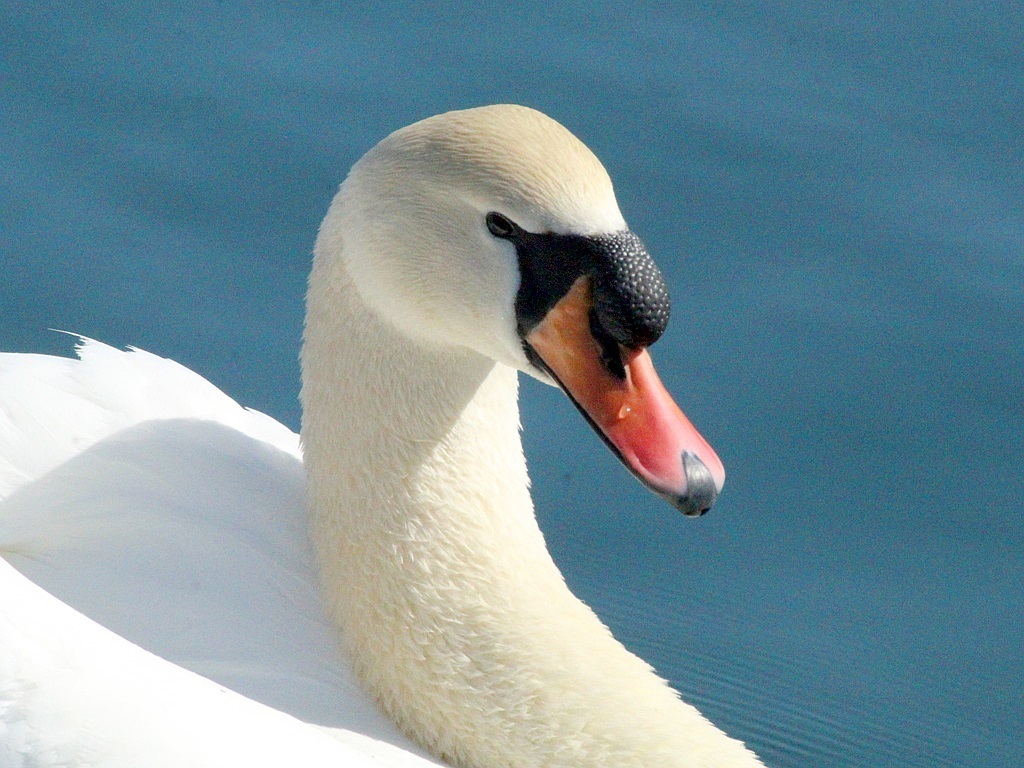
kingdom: Animalia
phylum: Chordata
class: Aves
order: Anseriformes
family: Anatidae
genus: Cygnus
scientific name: Cygnus olor
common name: Mute swan
